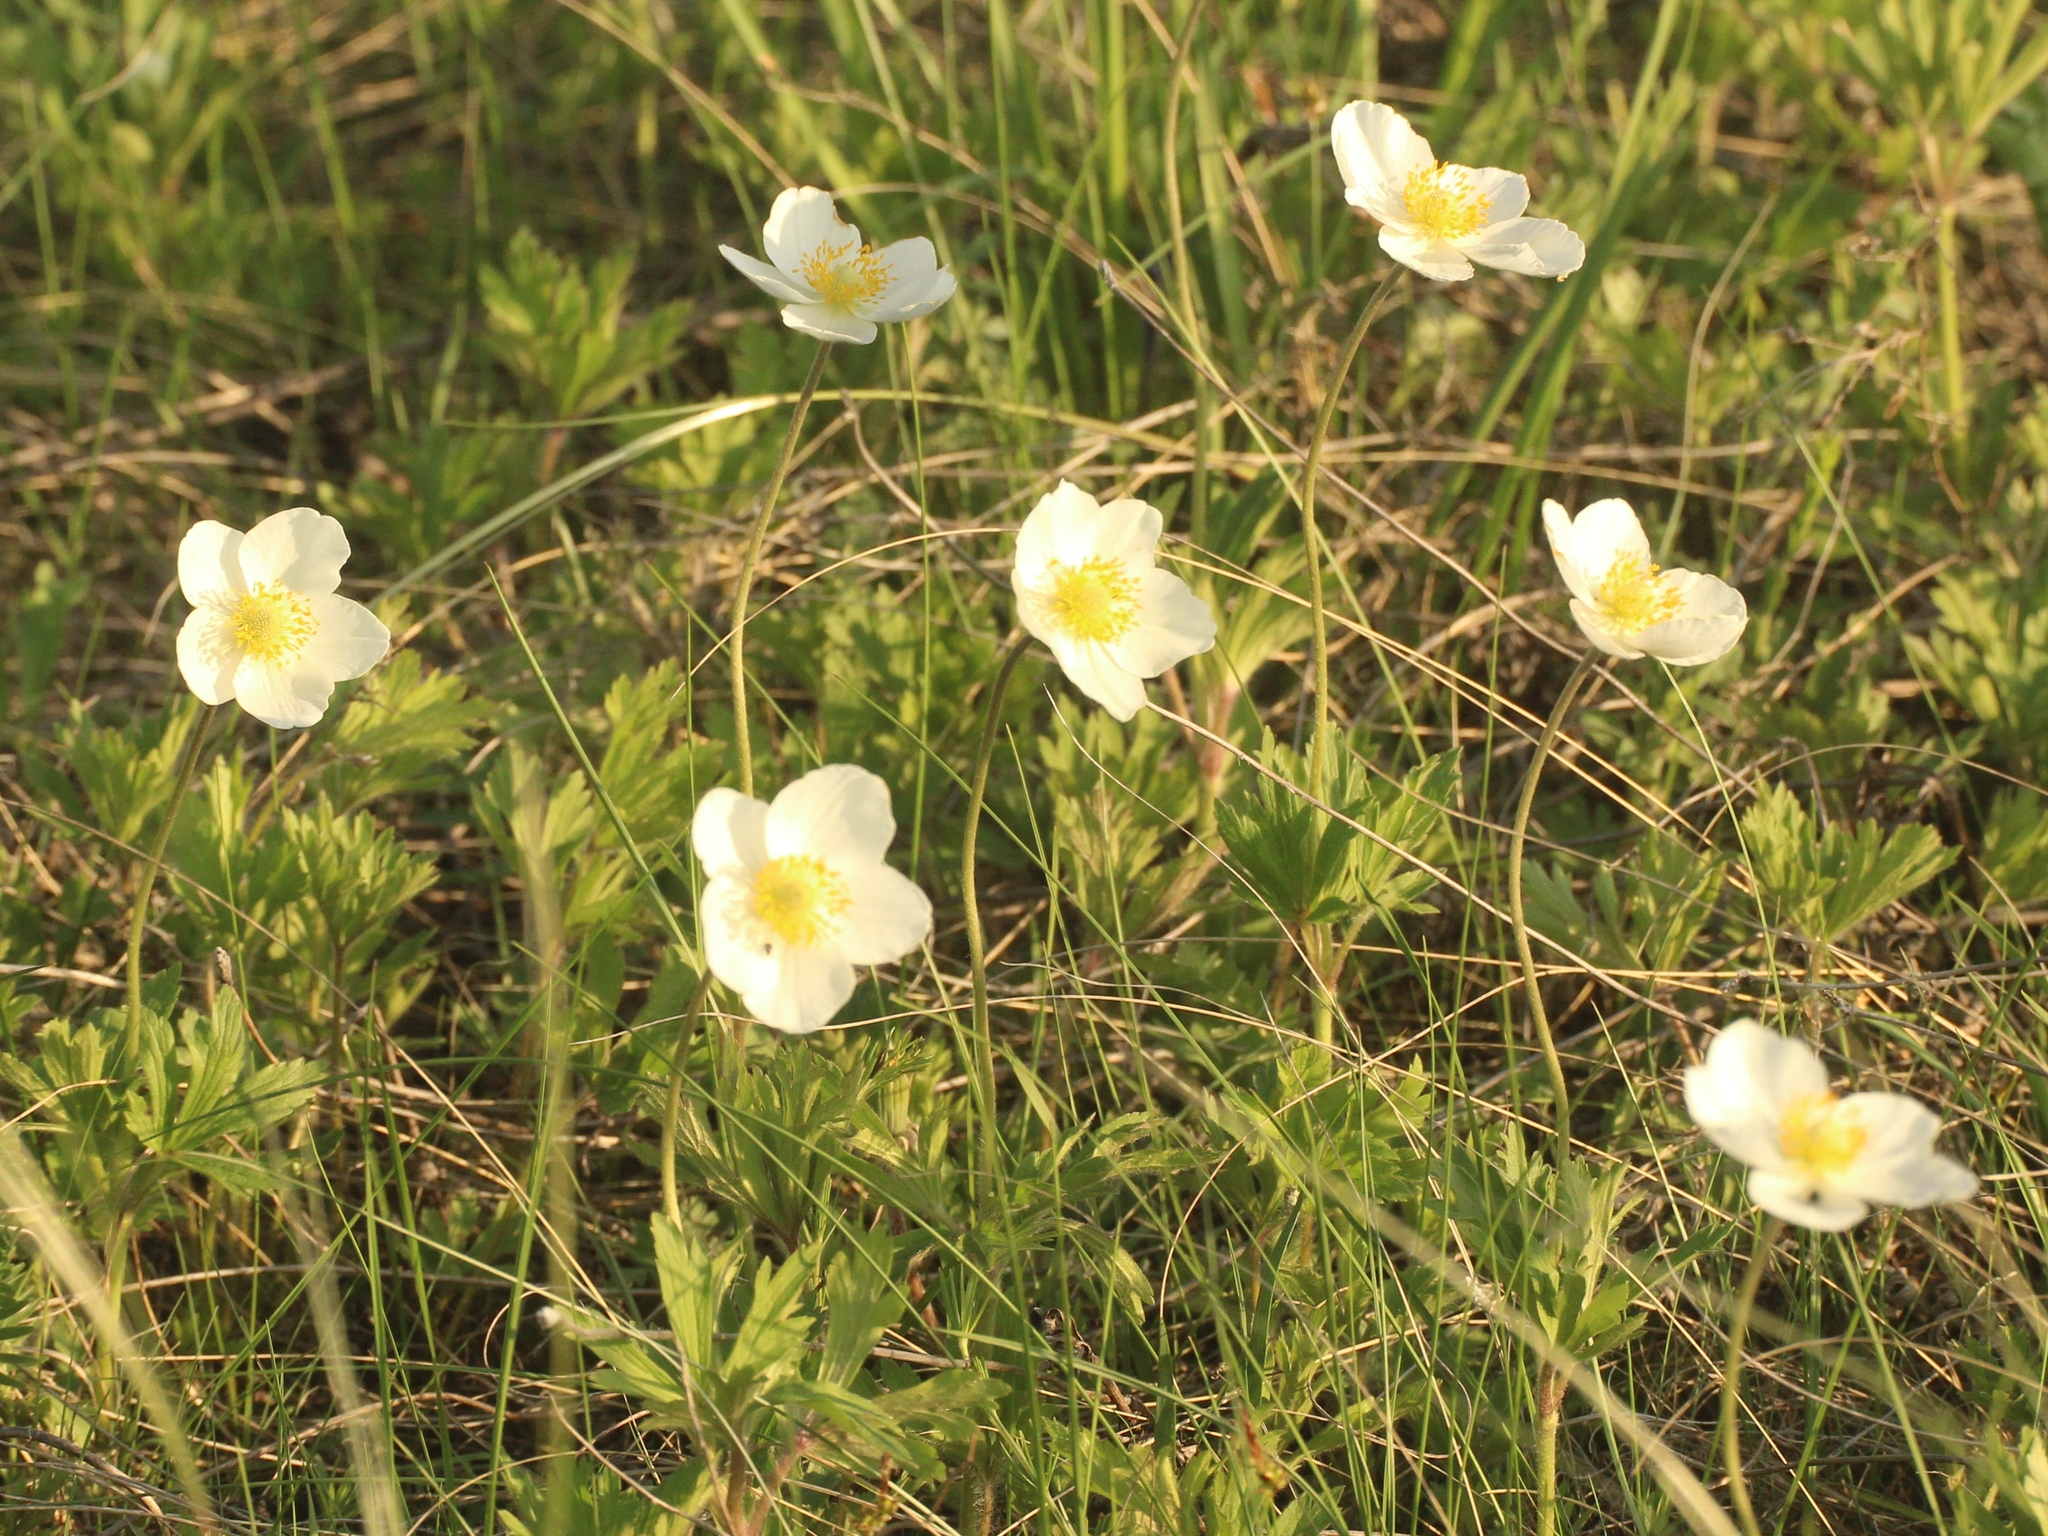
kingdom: Plantae
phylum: Tracheophyta
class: Magnoliopsida
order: Ranunculales
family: Ranunculaceae
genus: Anemone
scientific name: Anemone sylvestris
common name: Snowdrop anemone
